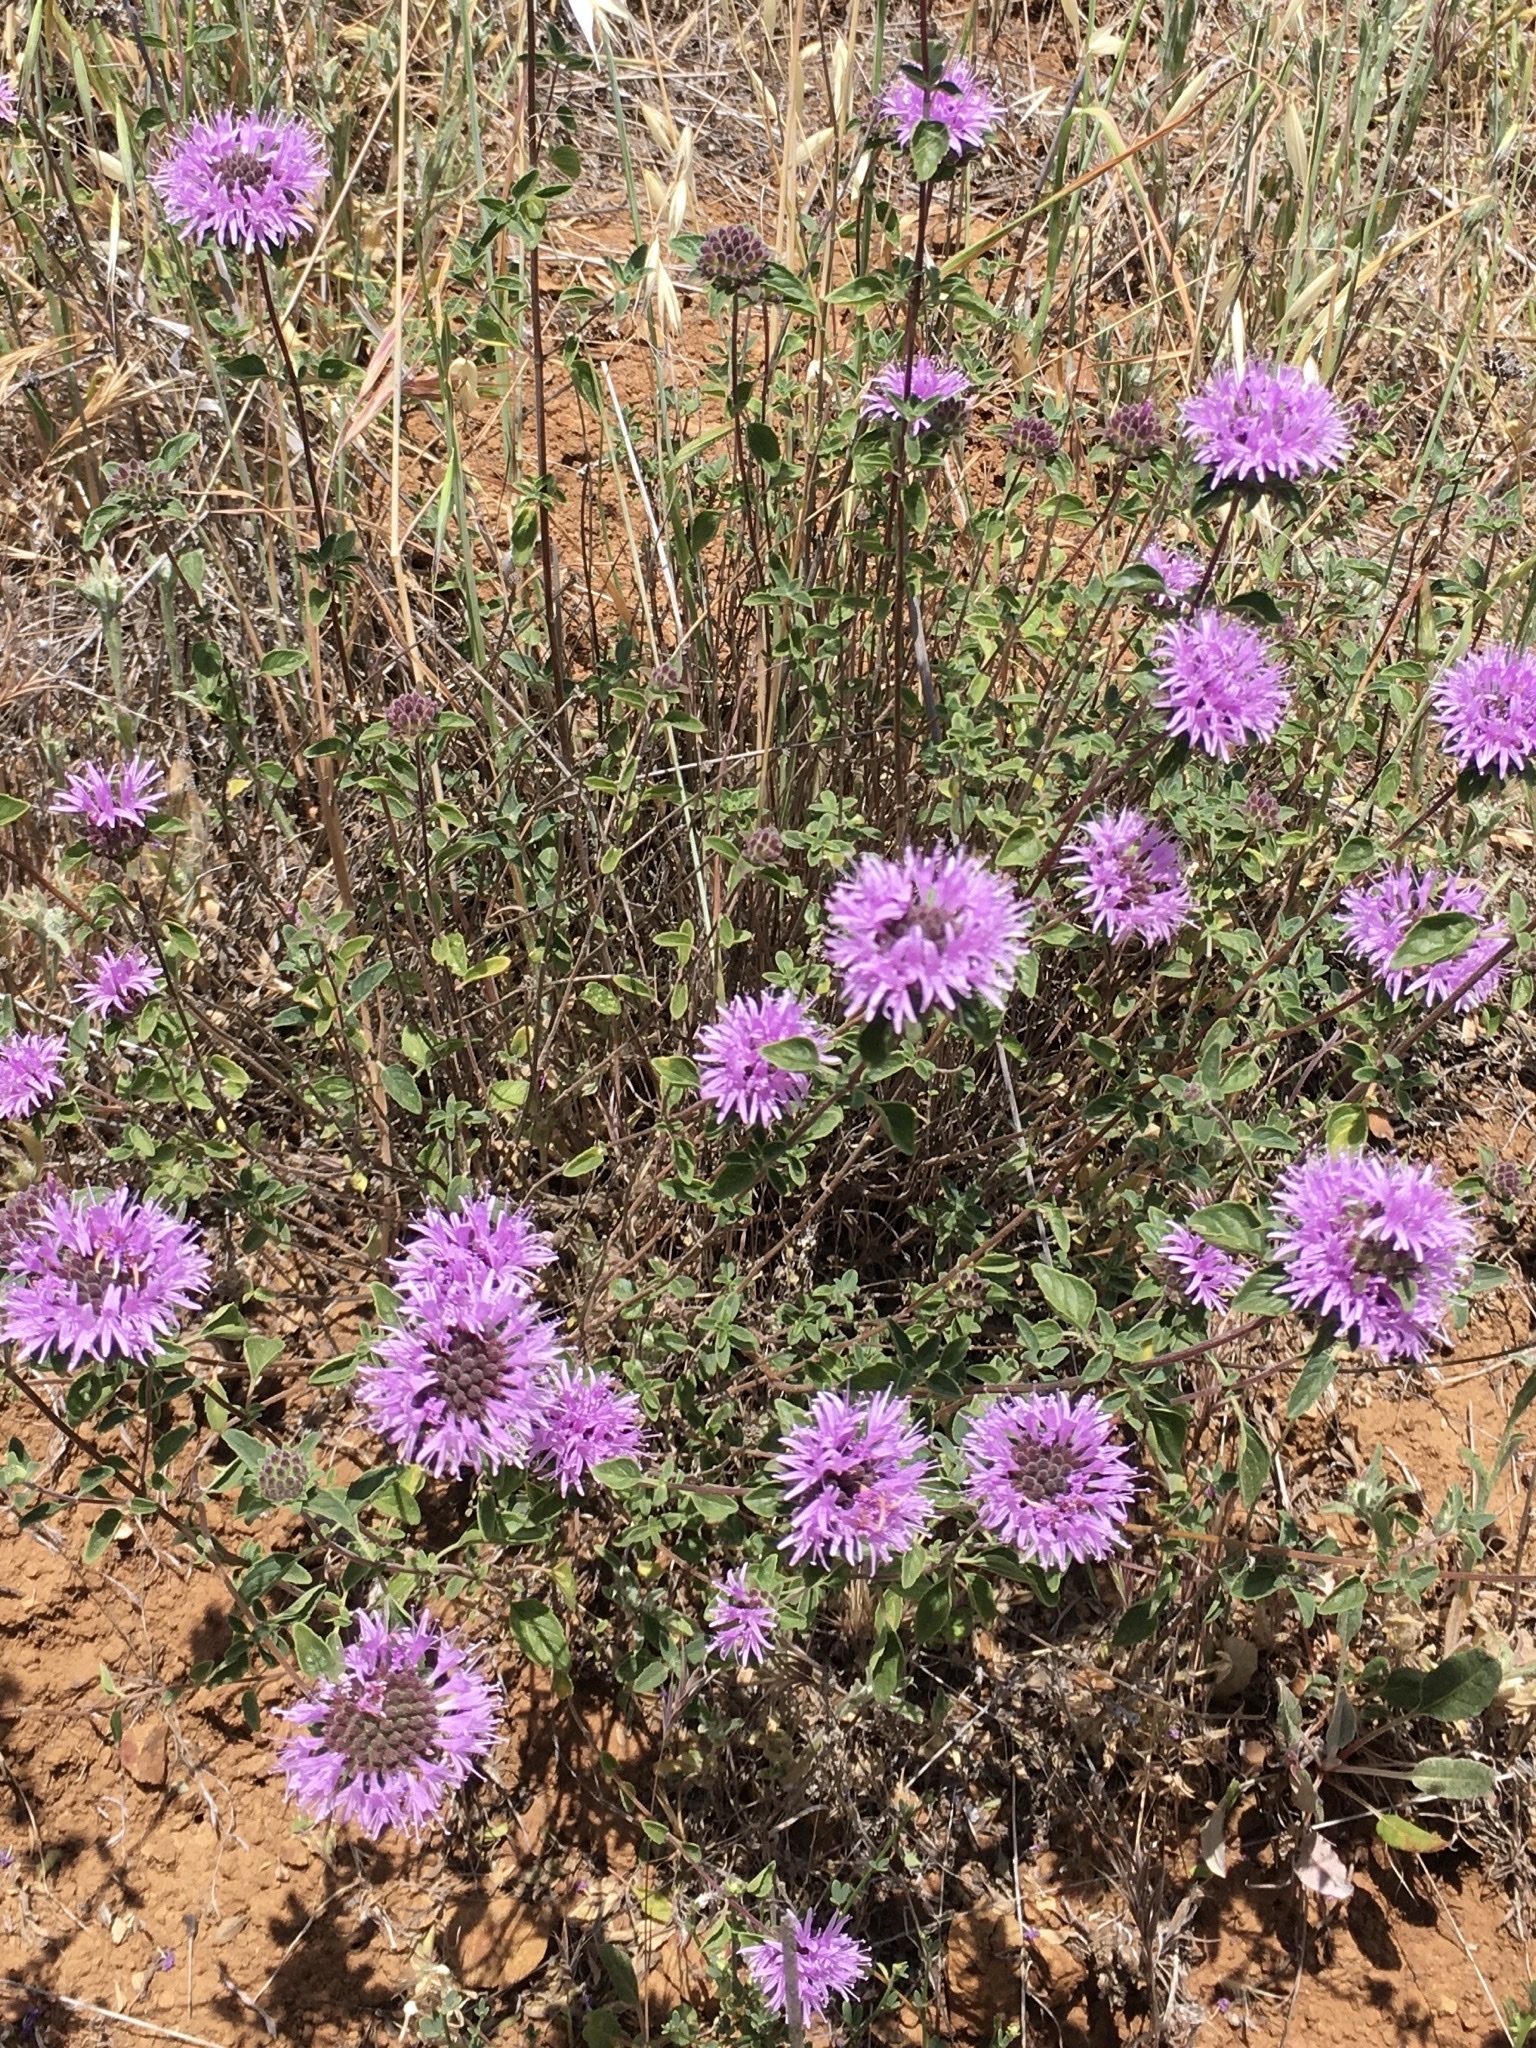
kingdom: Plantae
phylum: Tracheophyta
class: Magnoliopsida
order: Lamiales
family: Lamiaceae
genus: Monardella
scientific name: Monardella odoratissima
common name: Pacific monardella
